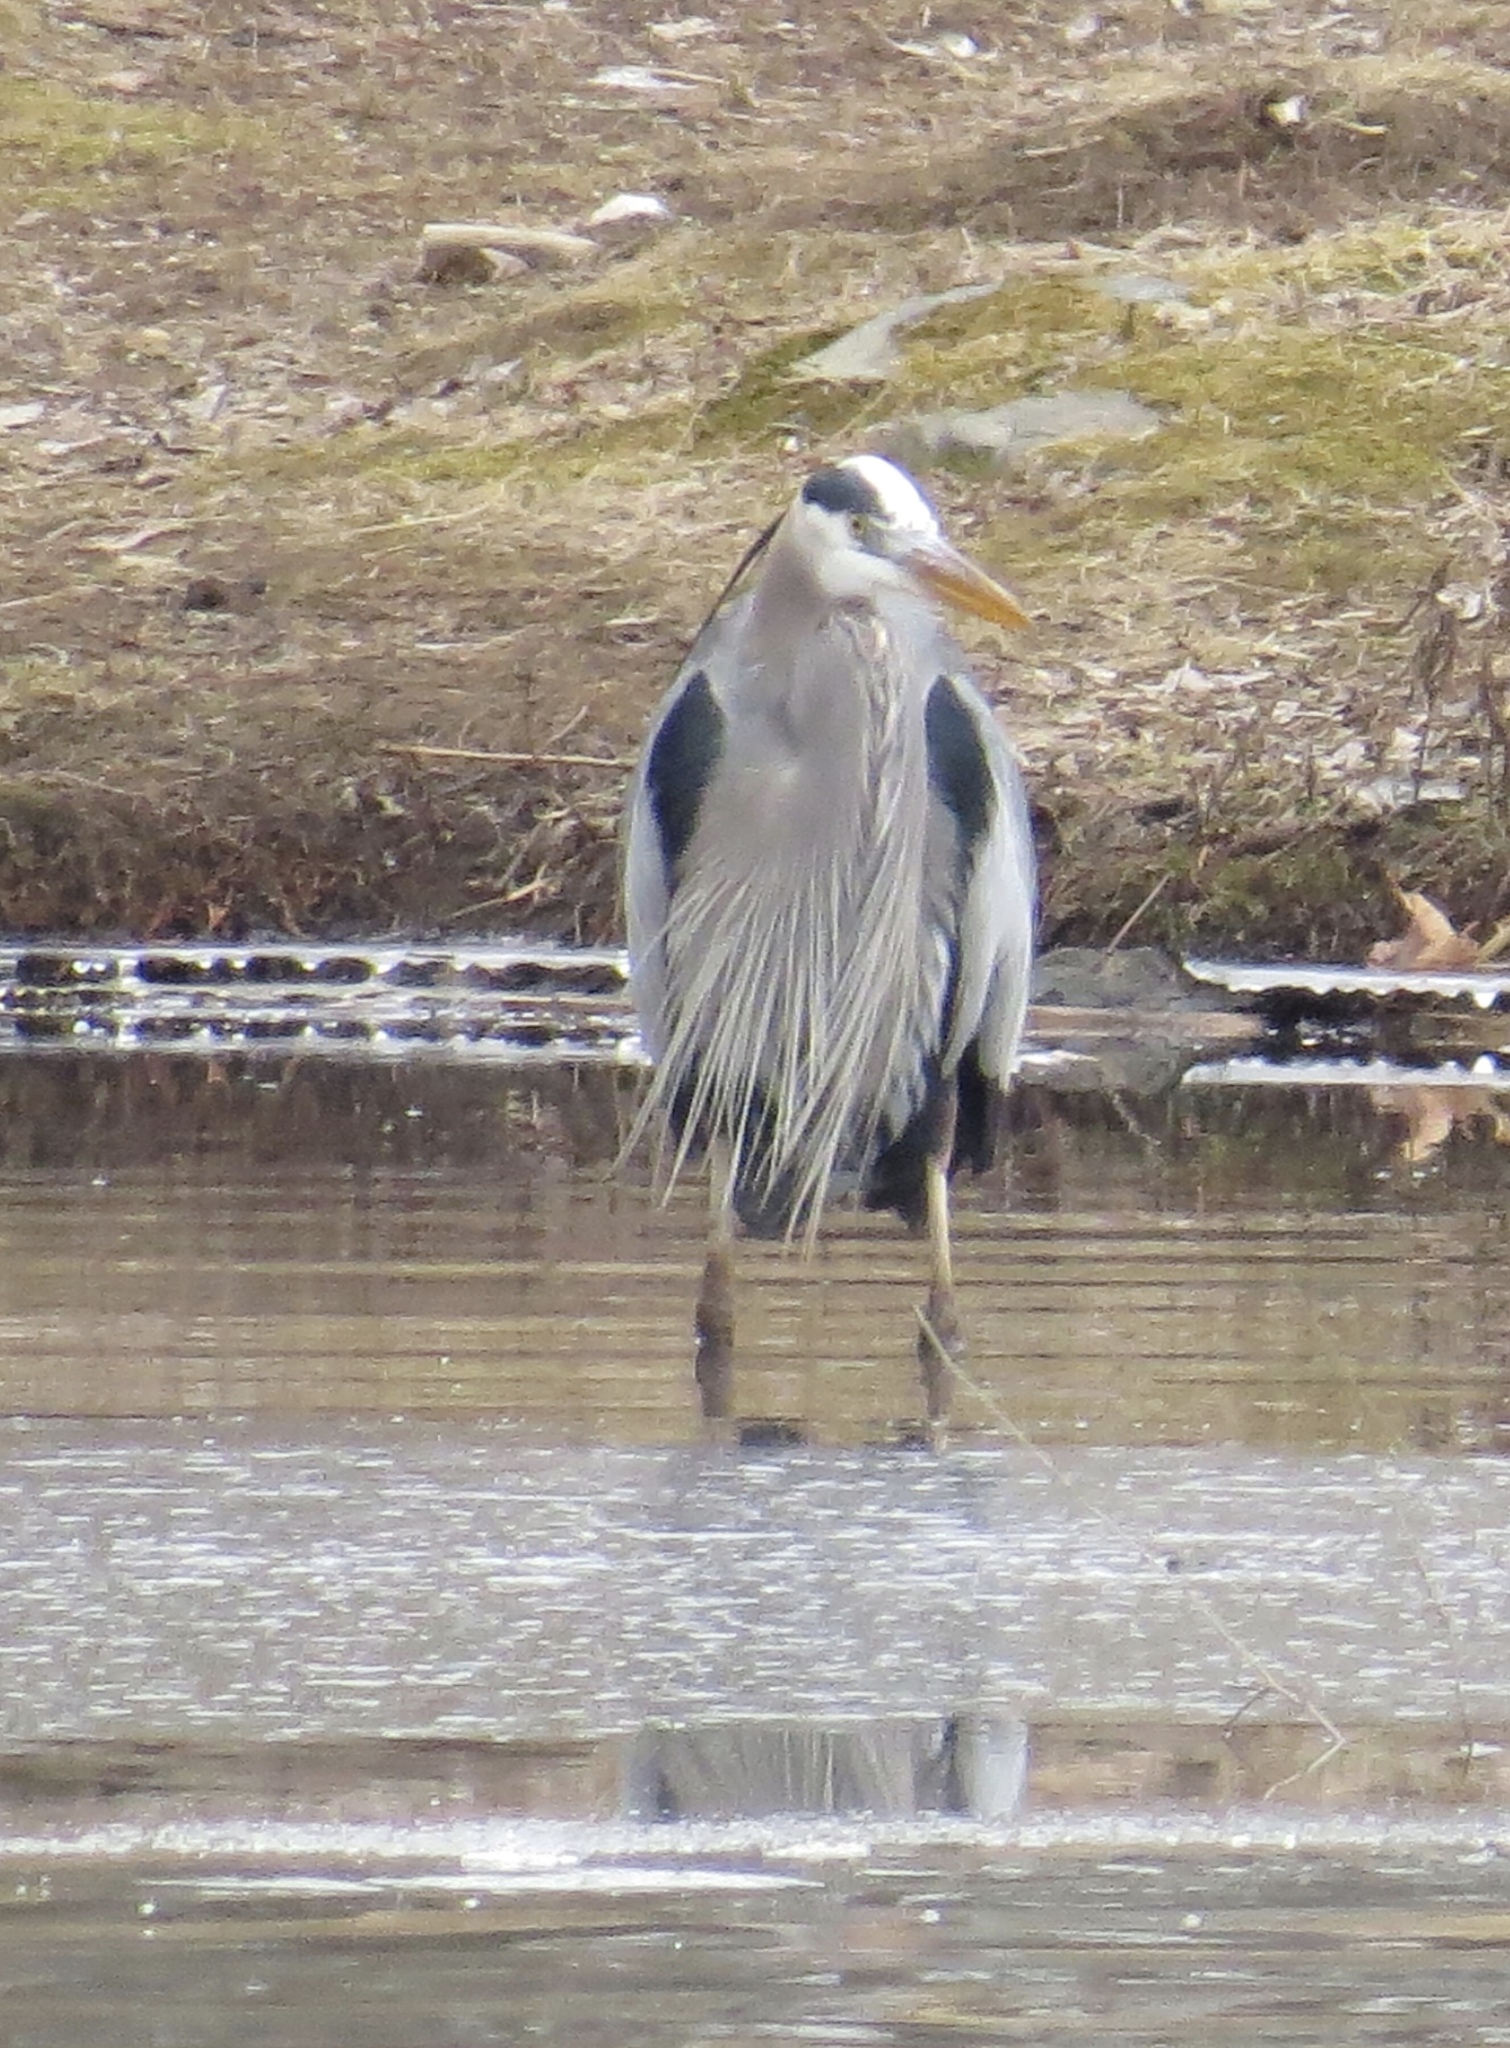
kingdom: Animalia
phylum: Chordata
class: Aves
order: Pelecaniformes
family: Ardeidae
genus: Ardea
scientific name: Ardea herodias
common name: Great blue heron
